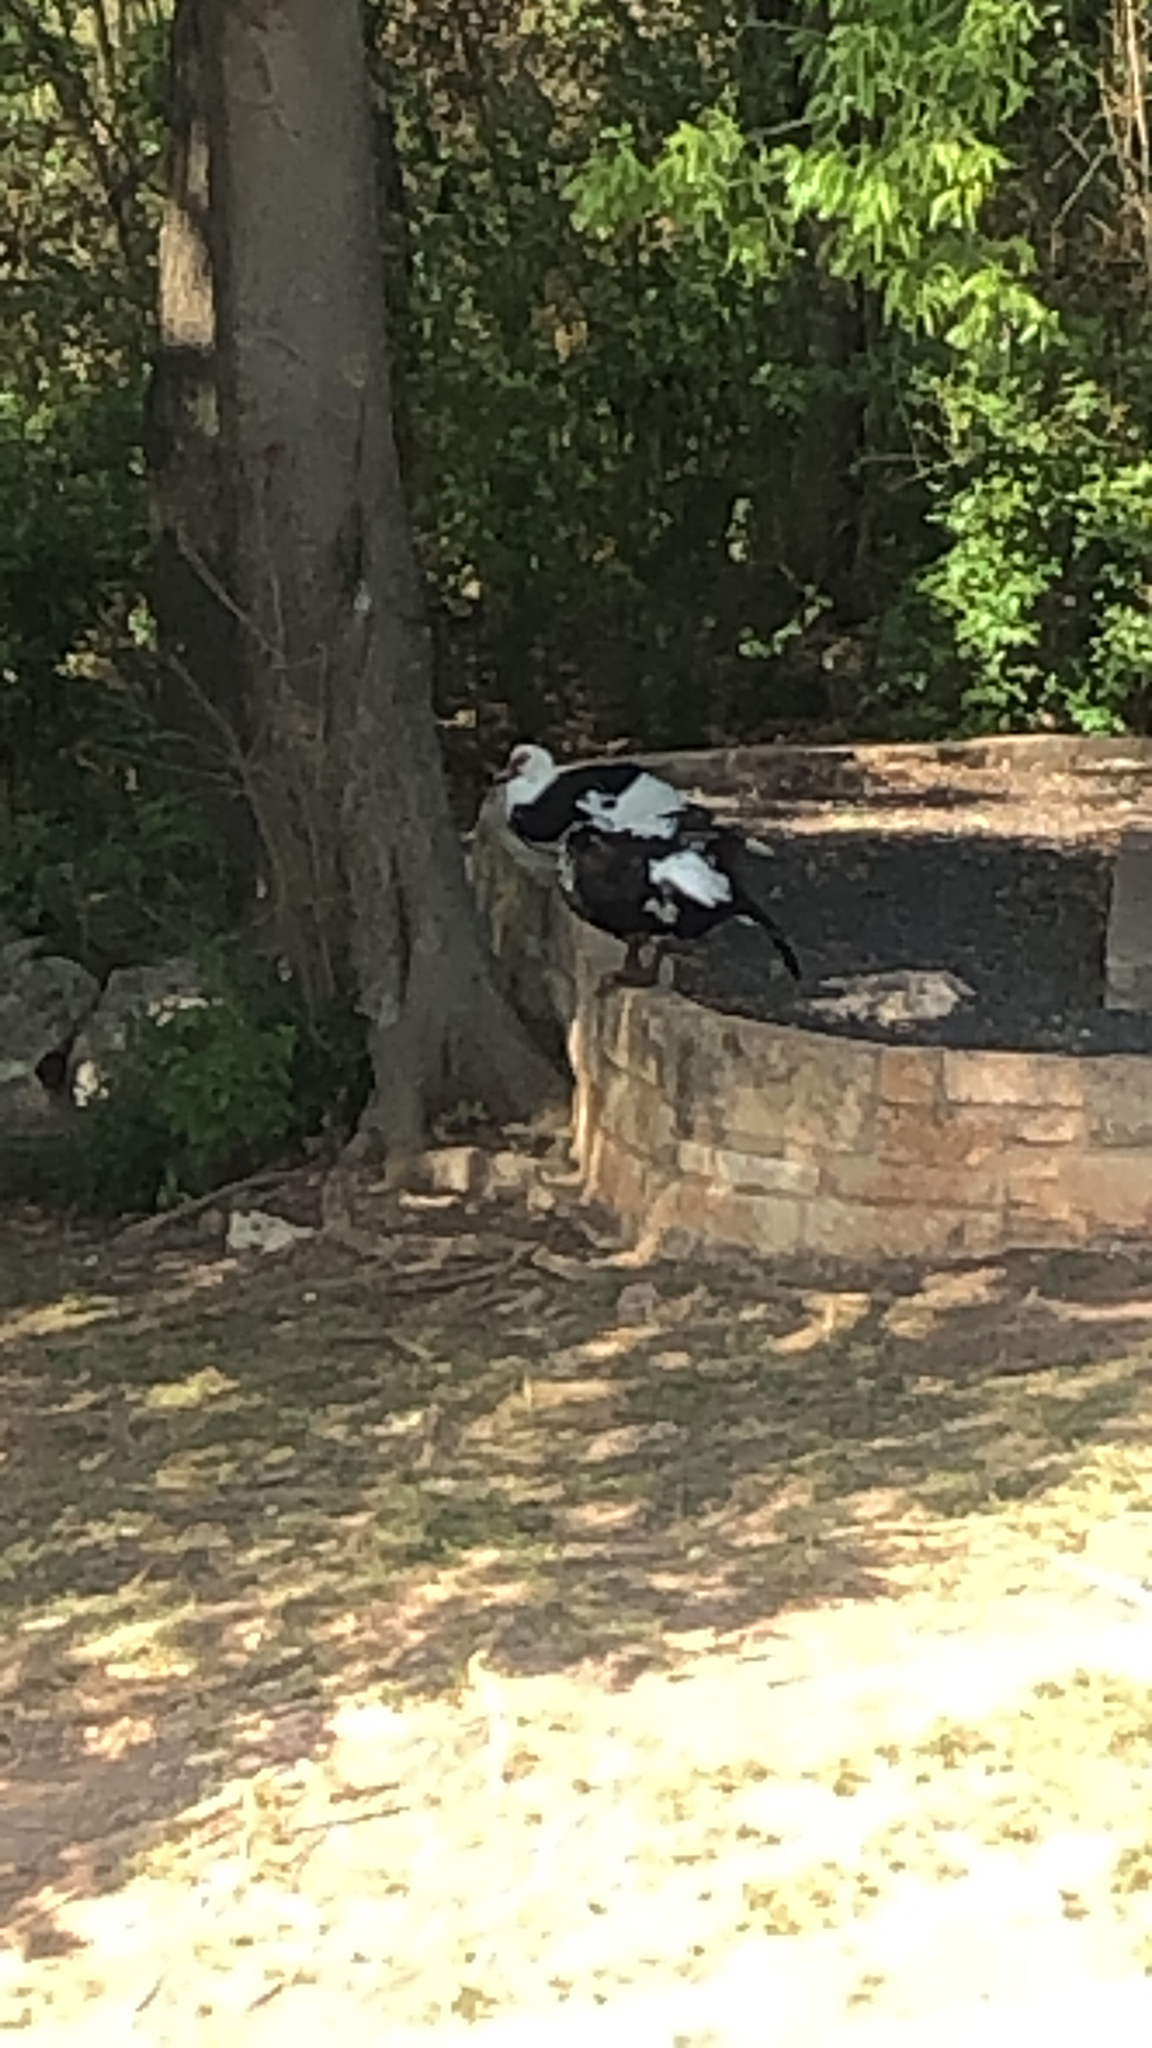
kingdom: Animalia
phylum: Chordata
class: Aves
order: Anseriformes
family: Anatidae
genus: Cairina
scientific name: Cairina moschata
